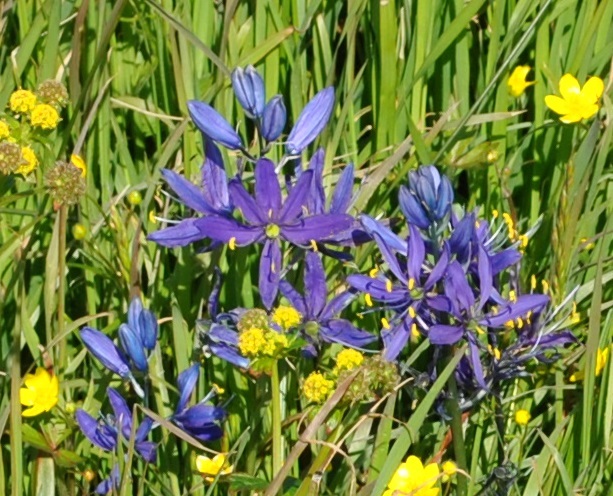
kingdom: Plantae
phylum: Tracheophyta
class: Liliopsida
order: Asparagales
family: Asparagaceae
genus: Camassia
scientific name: Camassia quamash
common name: Common camas
